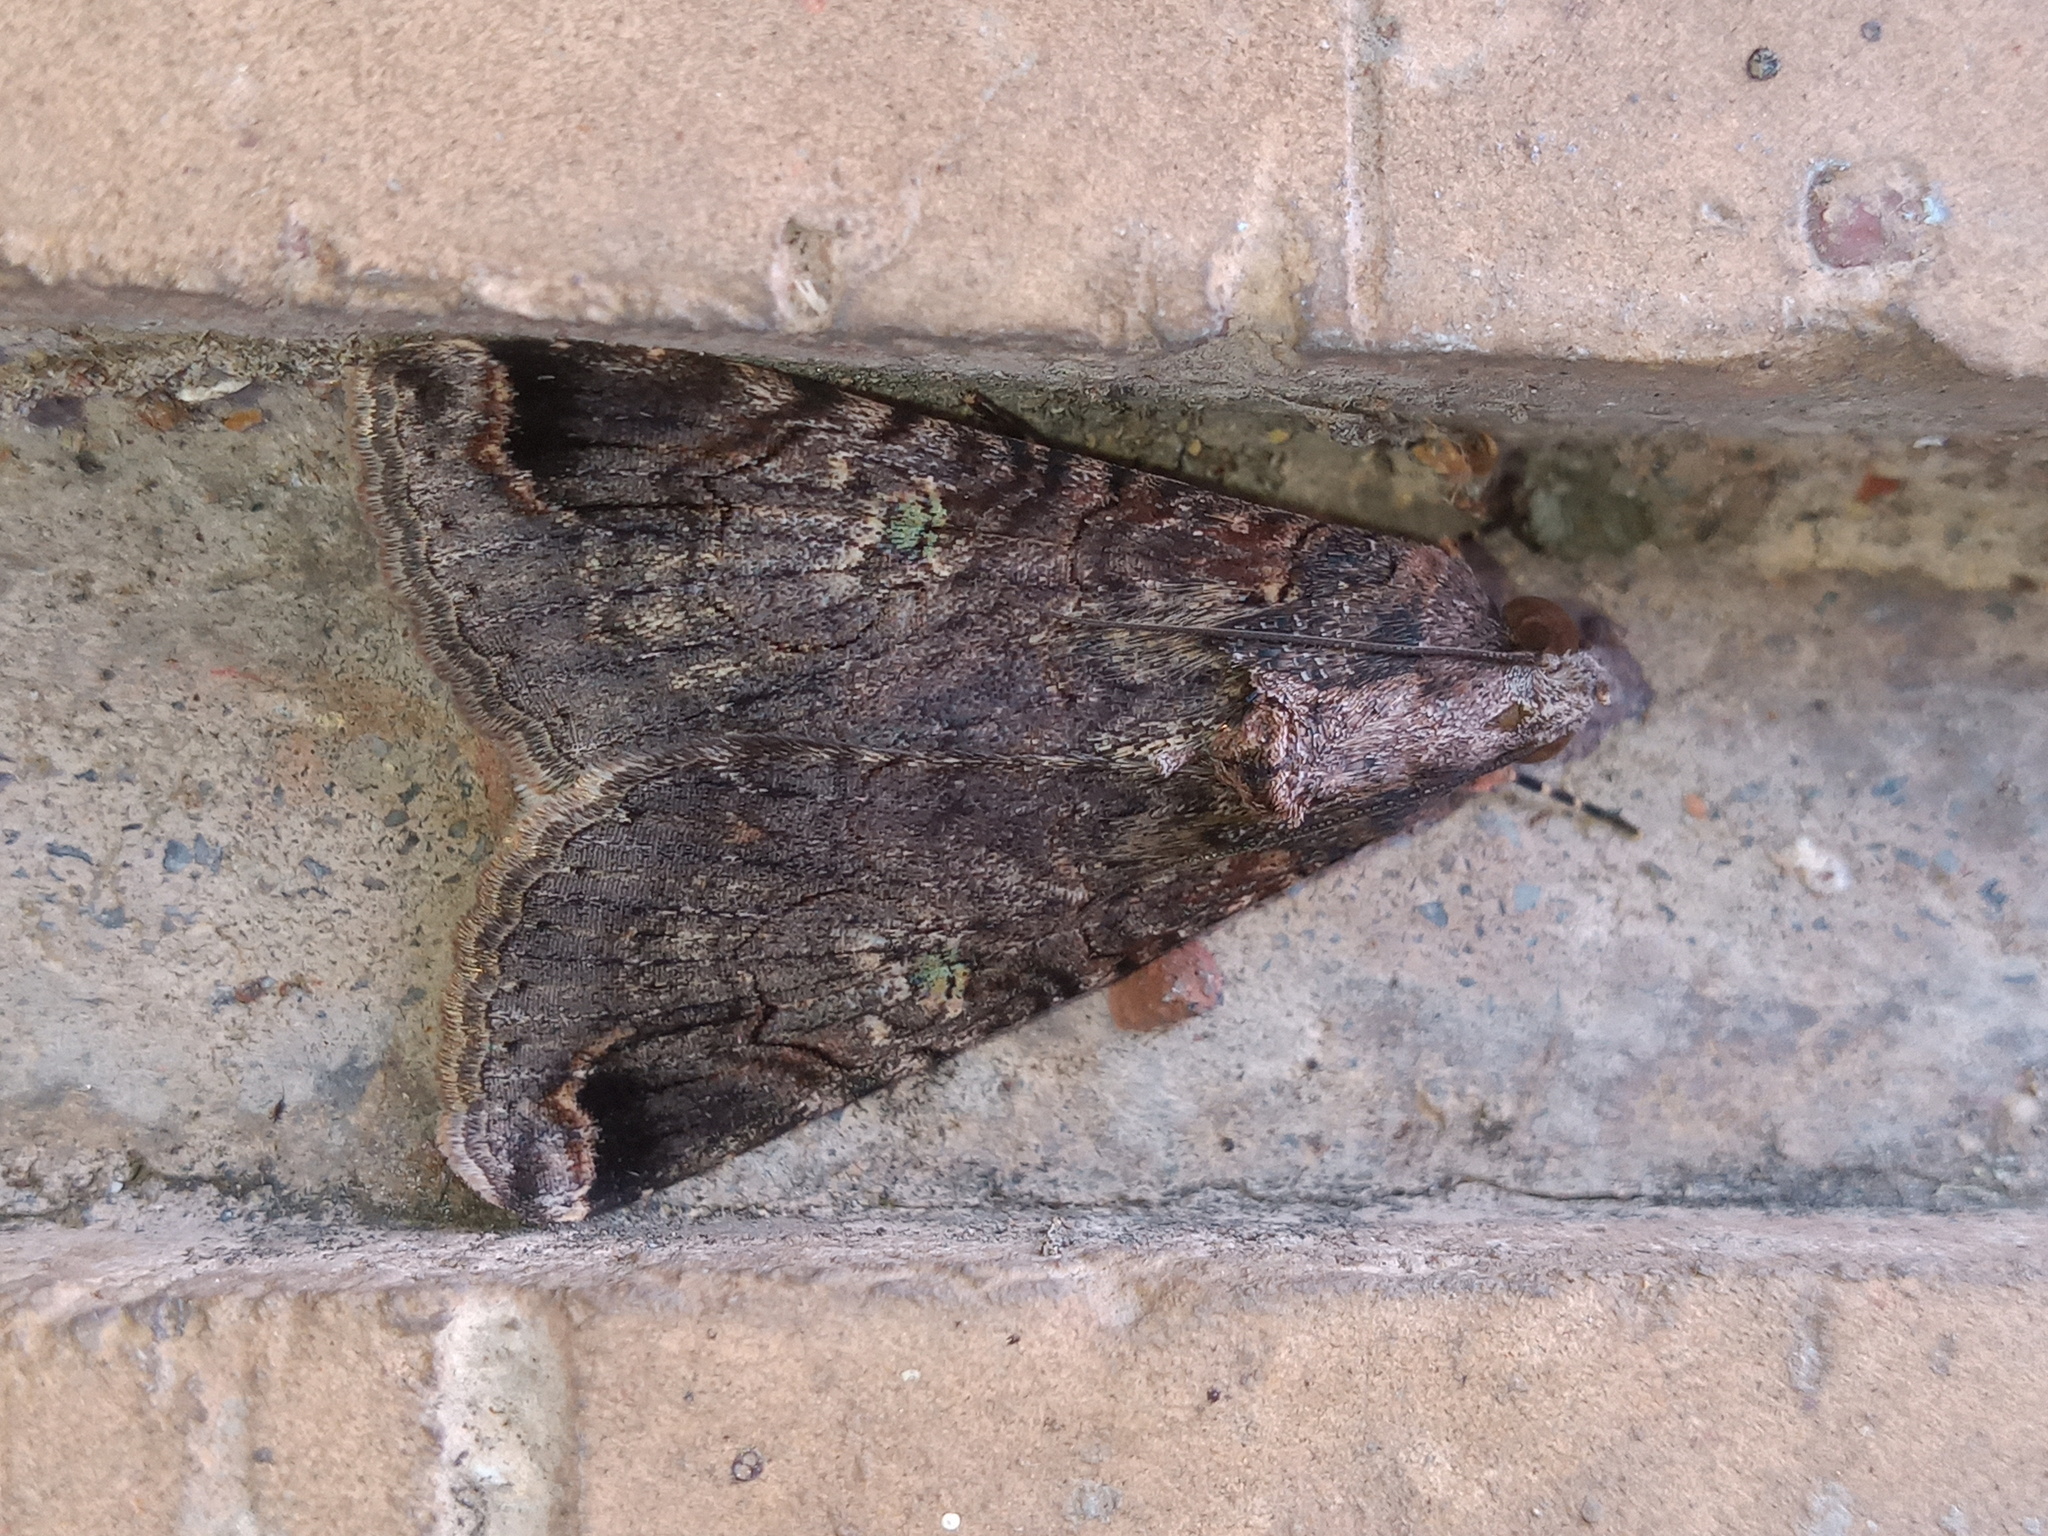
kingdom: Animalia
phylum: Arthropoda
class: Insecta
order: Lepidoptera
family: Erebidae
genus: Melipotis
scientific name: Melipotis famelica
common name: Famelica melipotis moth
